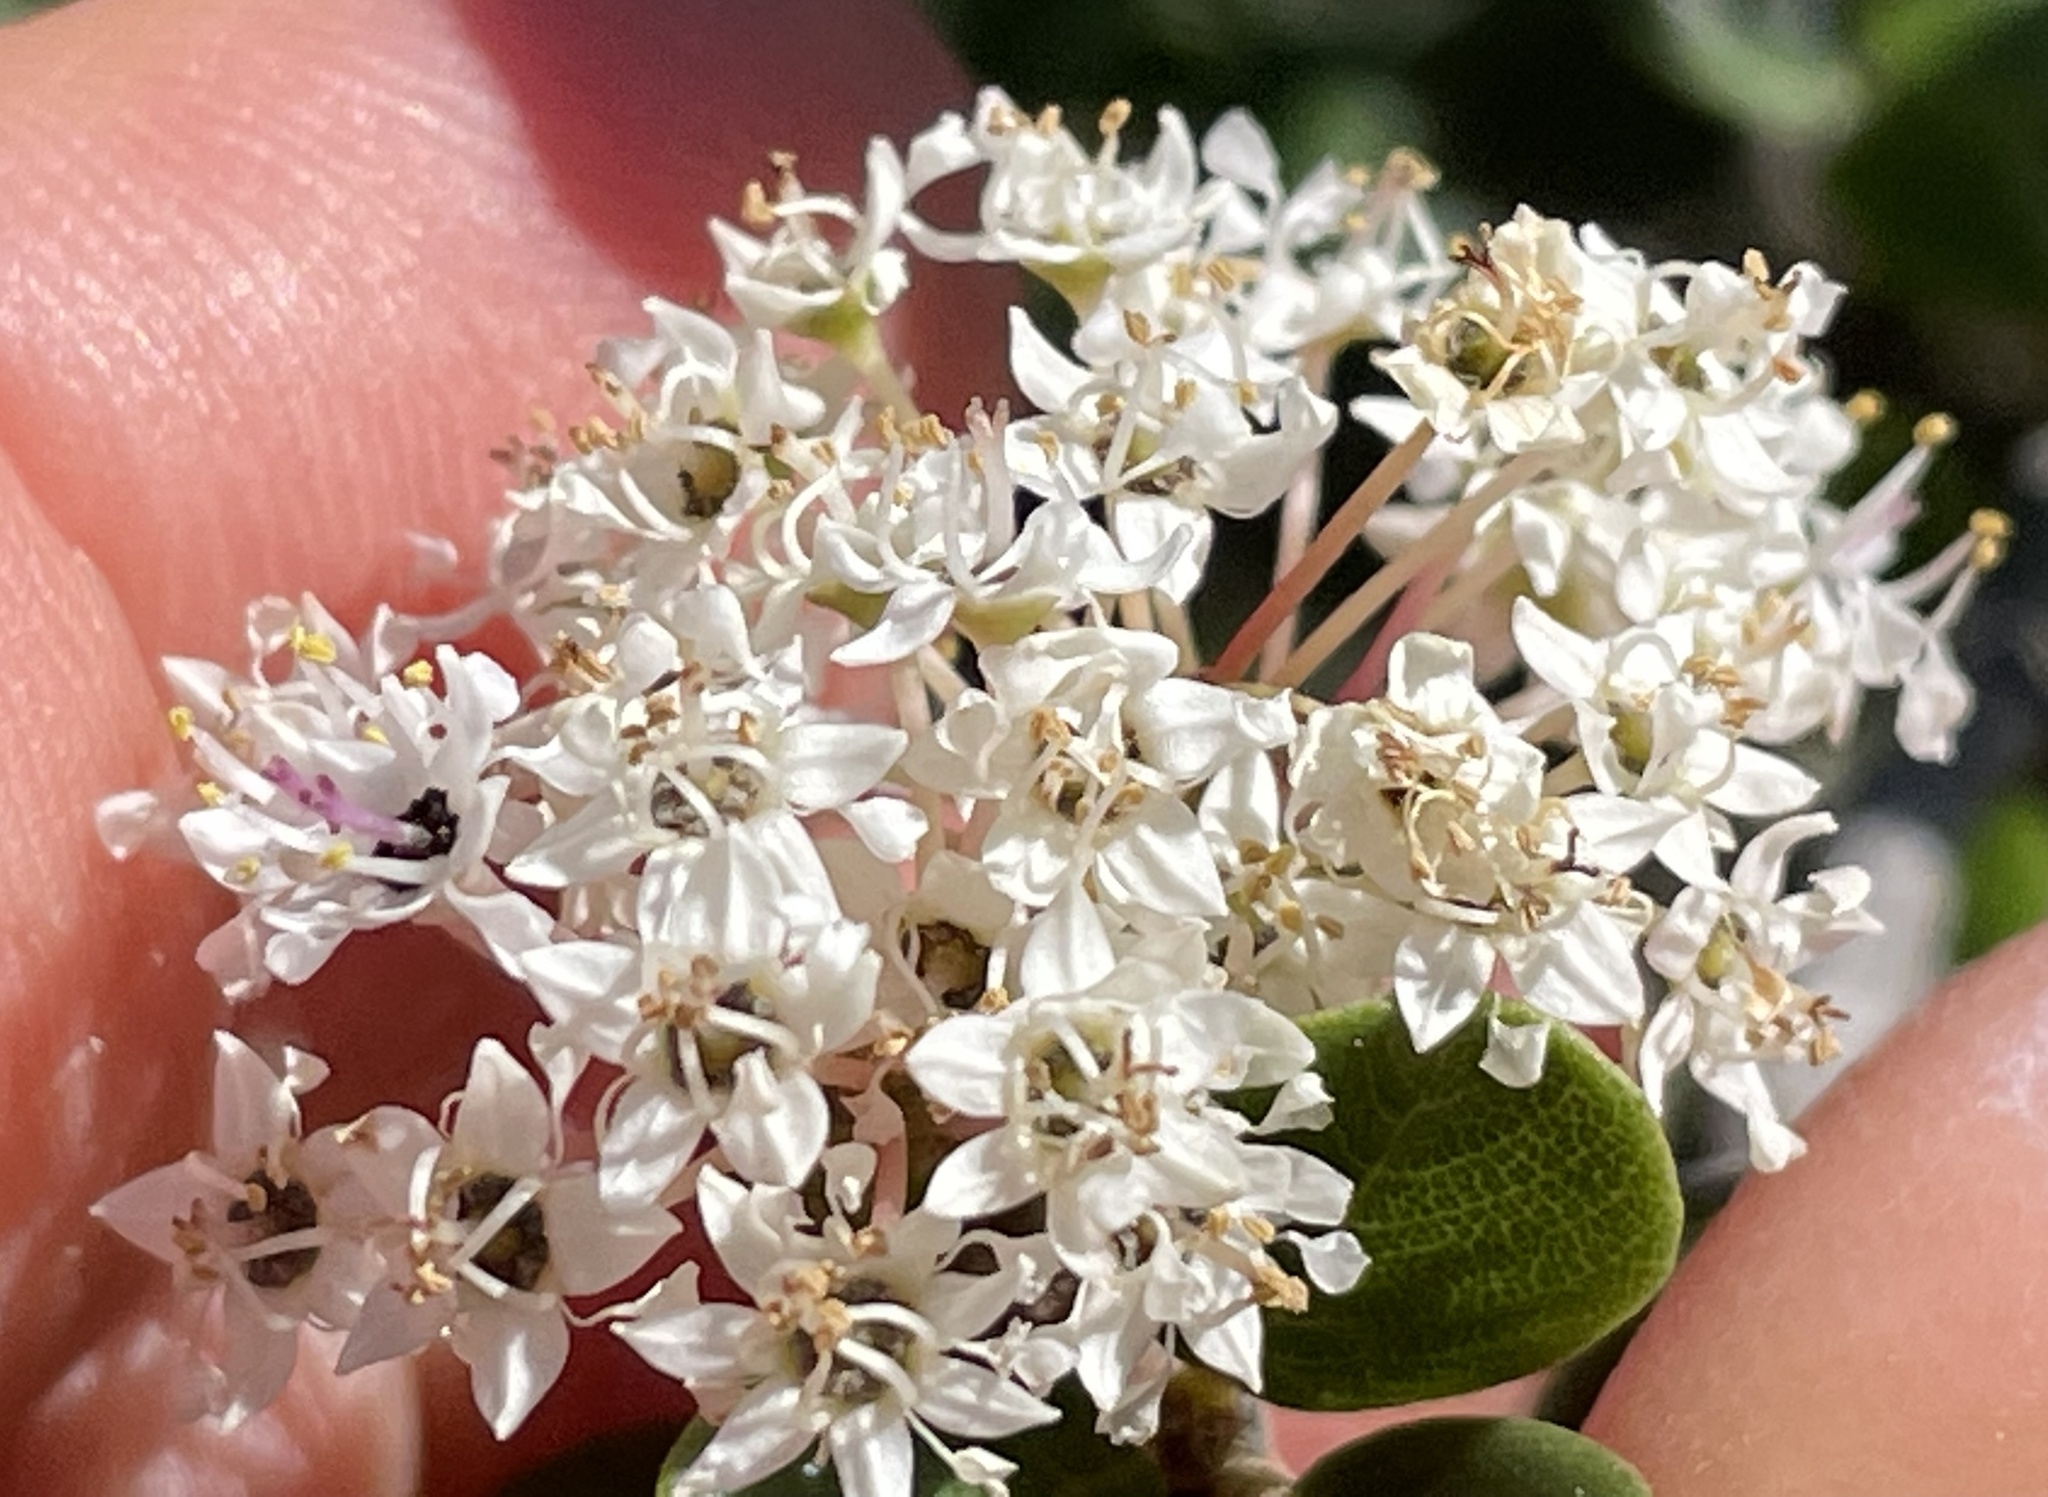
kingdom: Plantae
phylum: Tracheophyta
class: Magnoliopsida
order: Rosales
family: Rhamnaceae
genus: Ceanothus
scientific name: Ceanothus verrucosus
